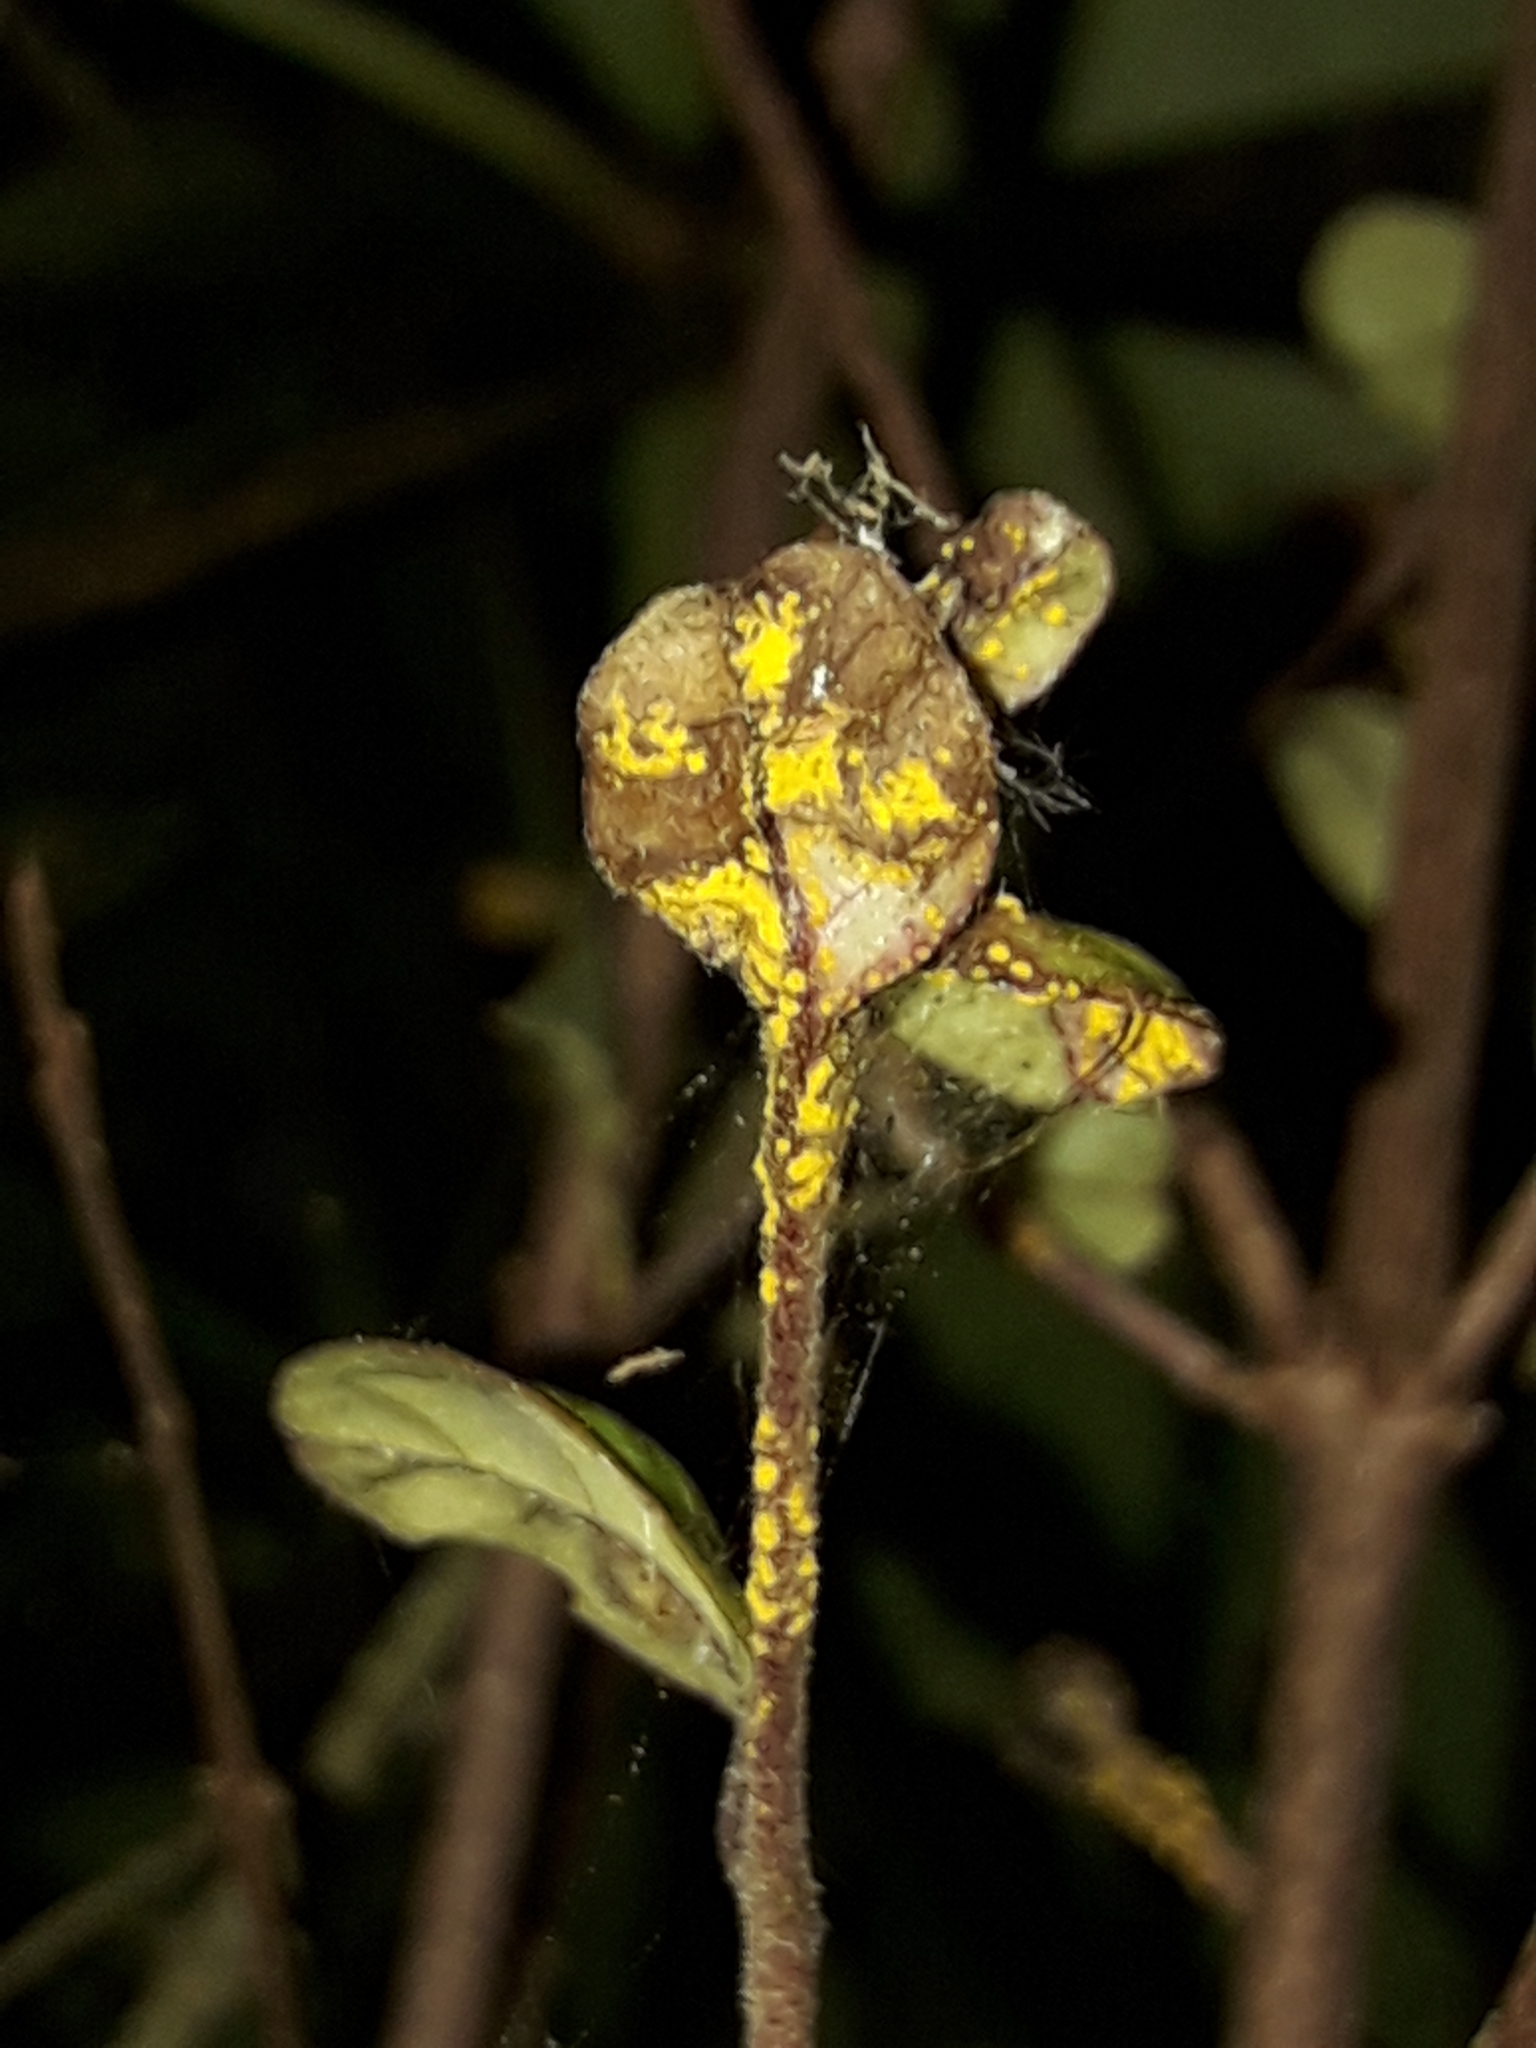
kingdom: Fungi
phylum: Basidiomycota
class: Pucciniomycetes
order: Pucciniales
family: Sphaerophragmiaceae
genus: Austropuccinia
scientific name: Austropuccinia psidii
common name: Myrtle rust
